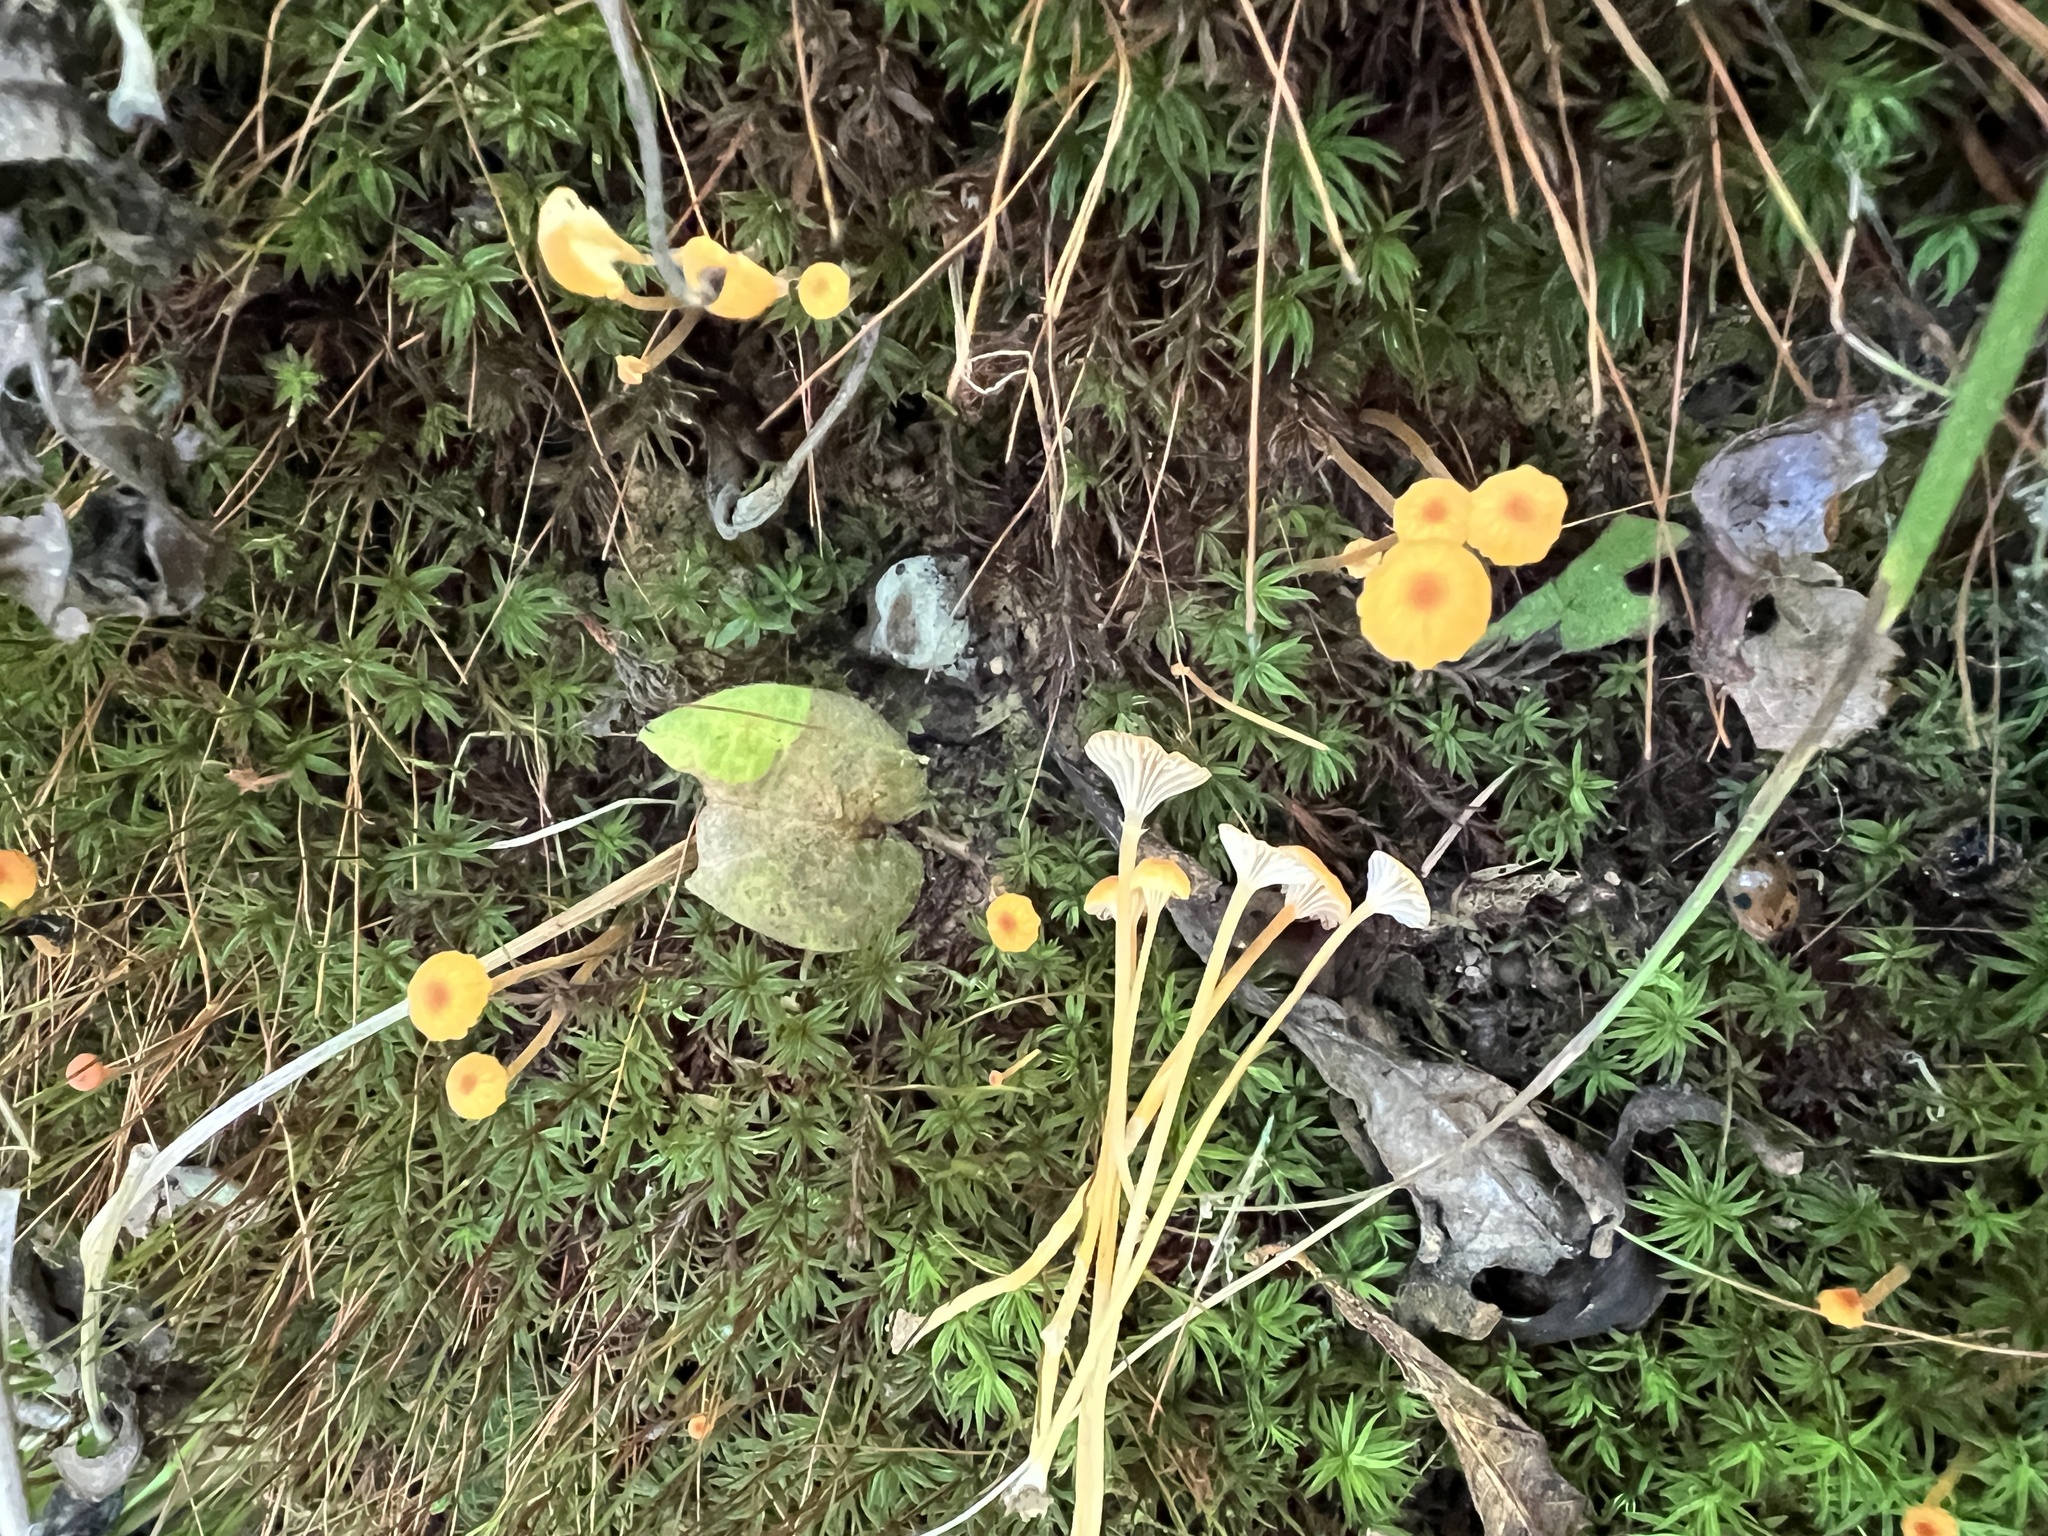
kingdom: Fungi
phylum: Basidiomycota
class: Agaricomycetes
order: Hymenochaetales
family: Rickenellaceae
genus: Rickenella
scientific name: Rickenella fibula
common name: Orange mosscap
